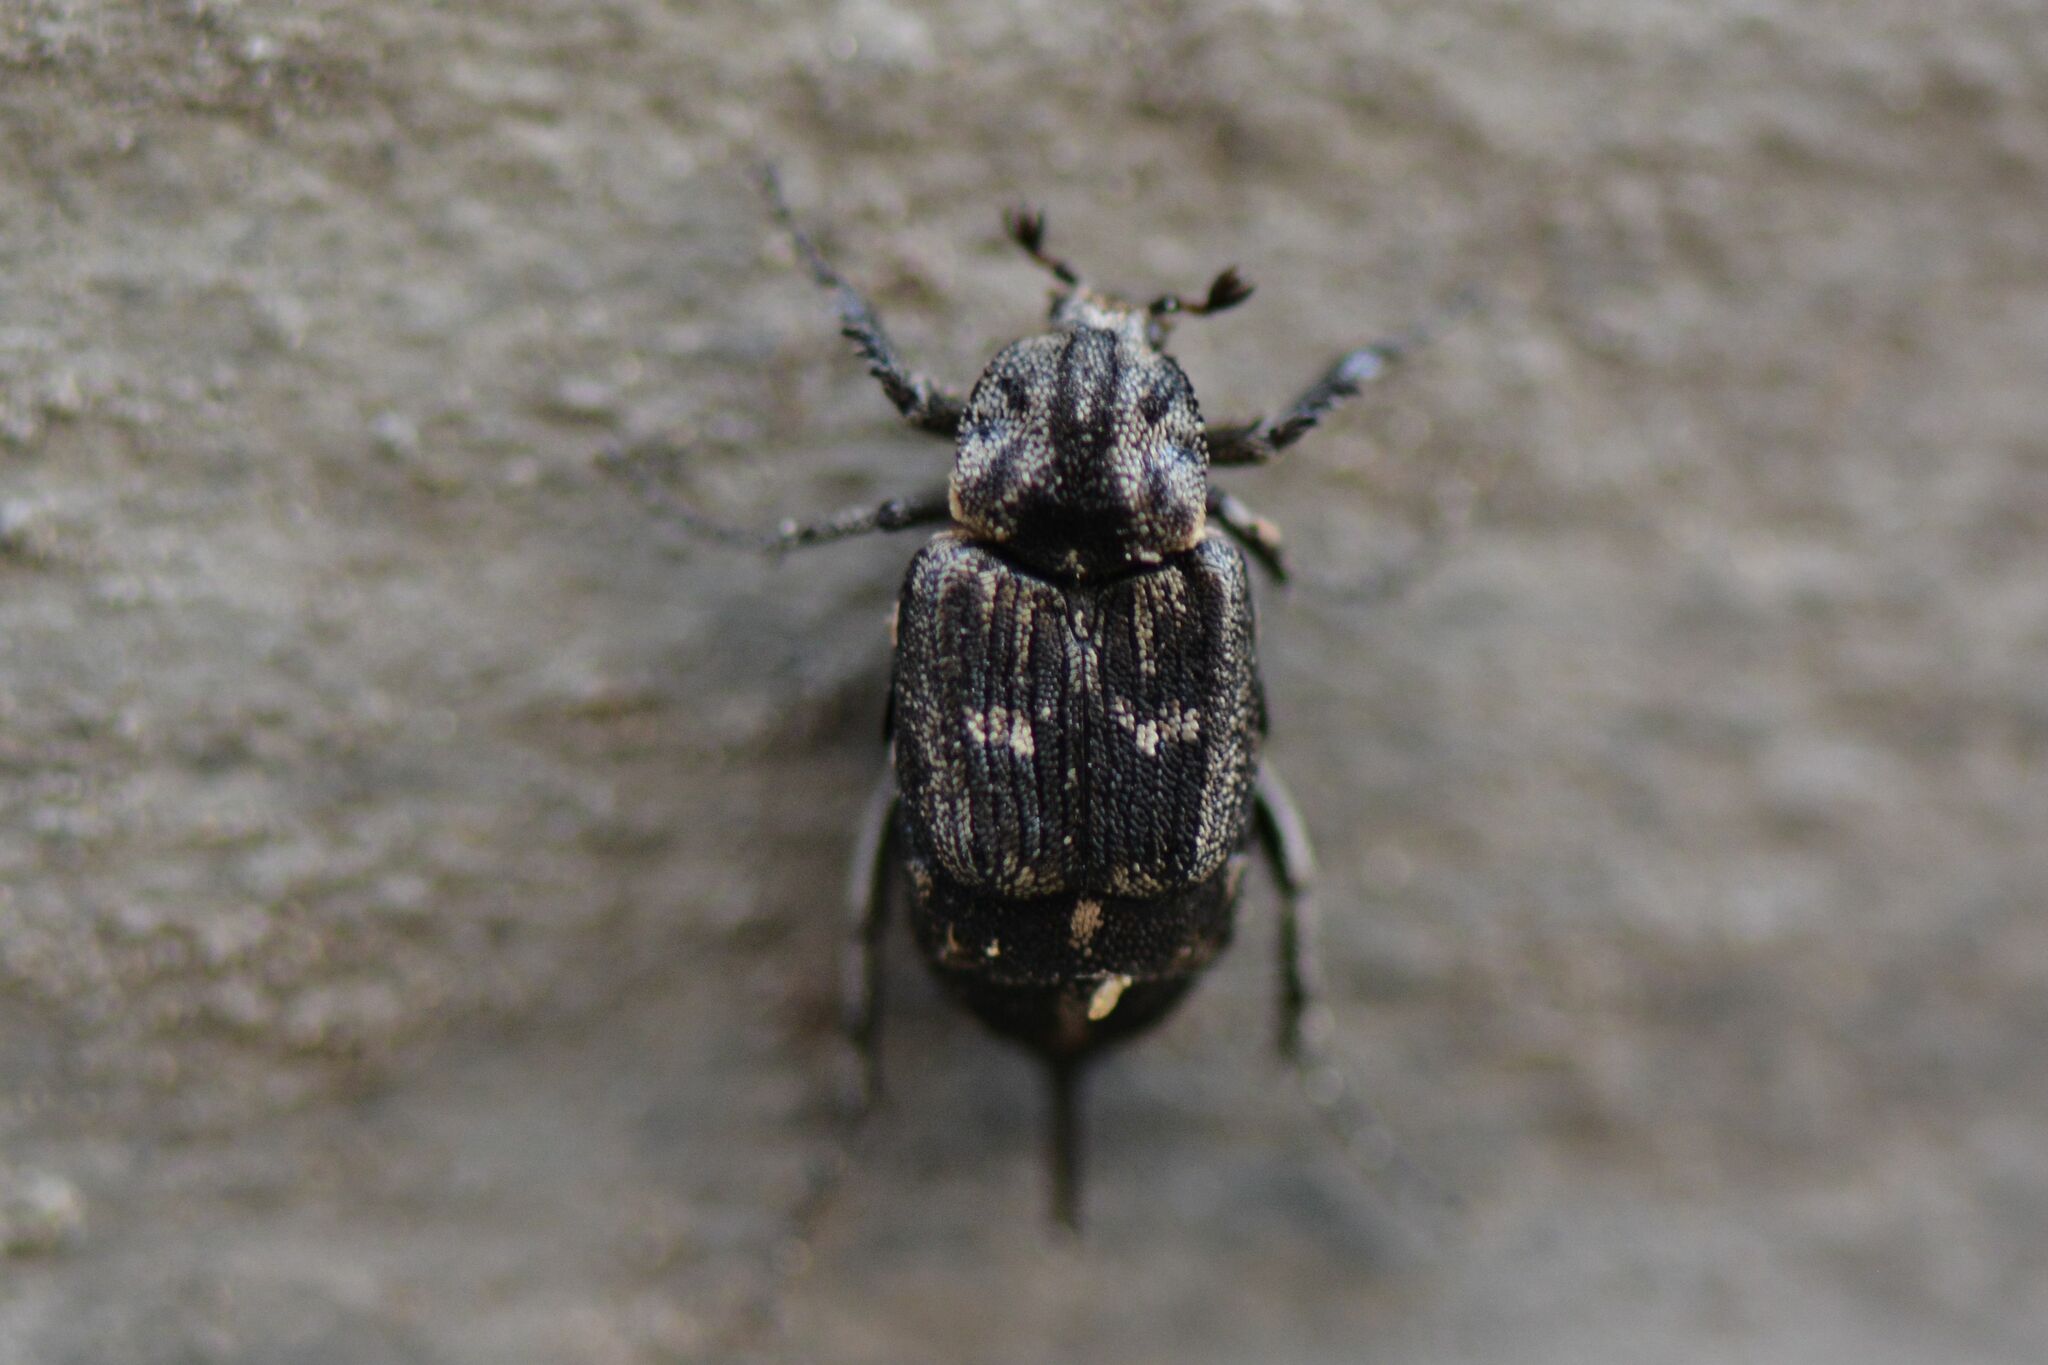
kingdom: Animalia
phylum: Arthropoda
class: Insecta
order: Coleoptera
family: Scarabaeidae
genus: Valgus
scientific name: Valgus hemipterus
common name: Bug flower chafer
